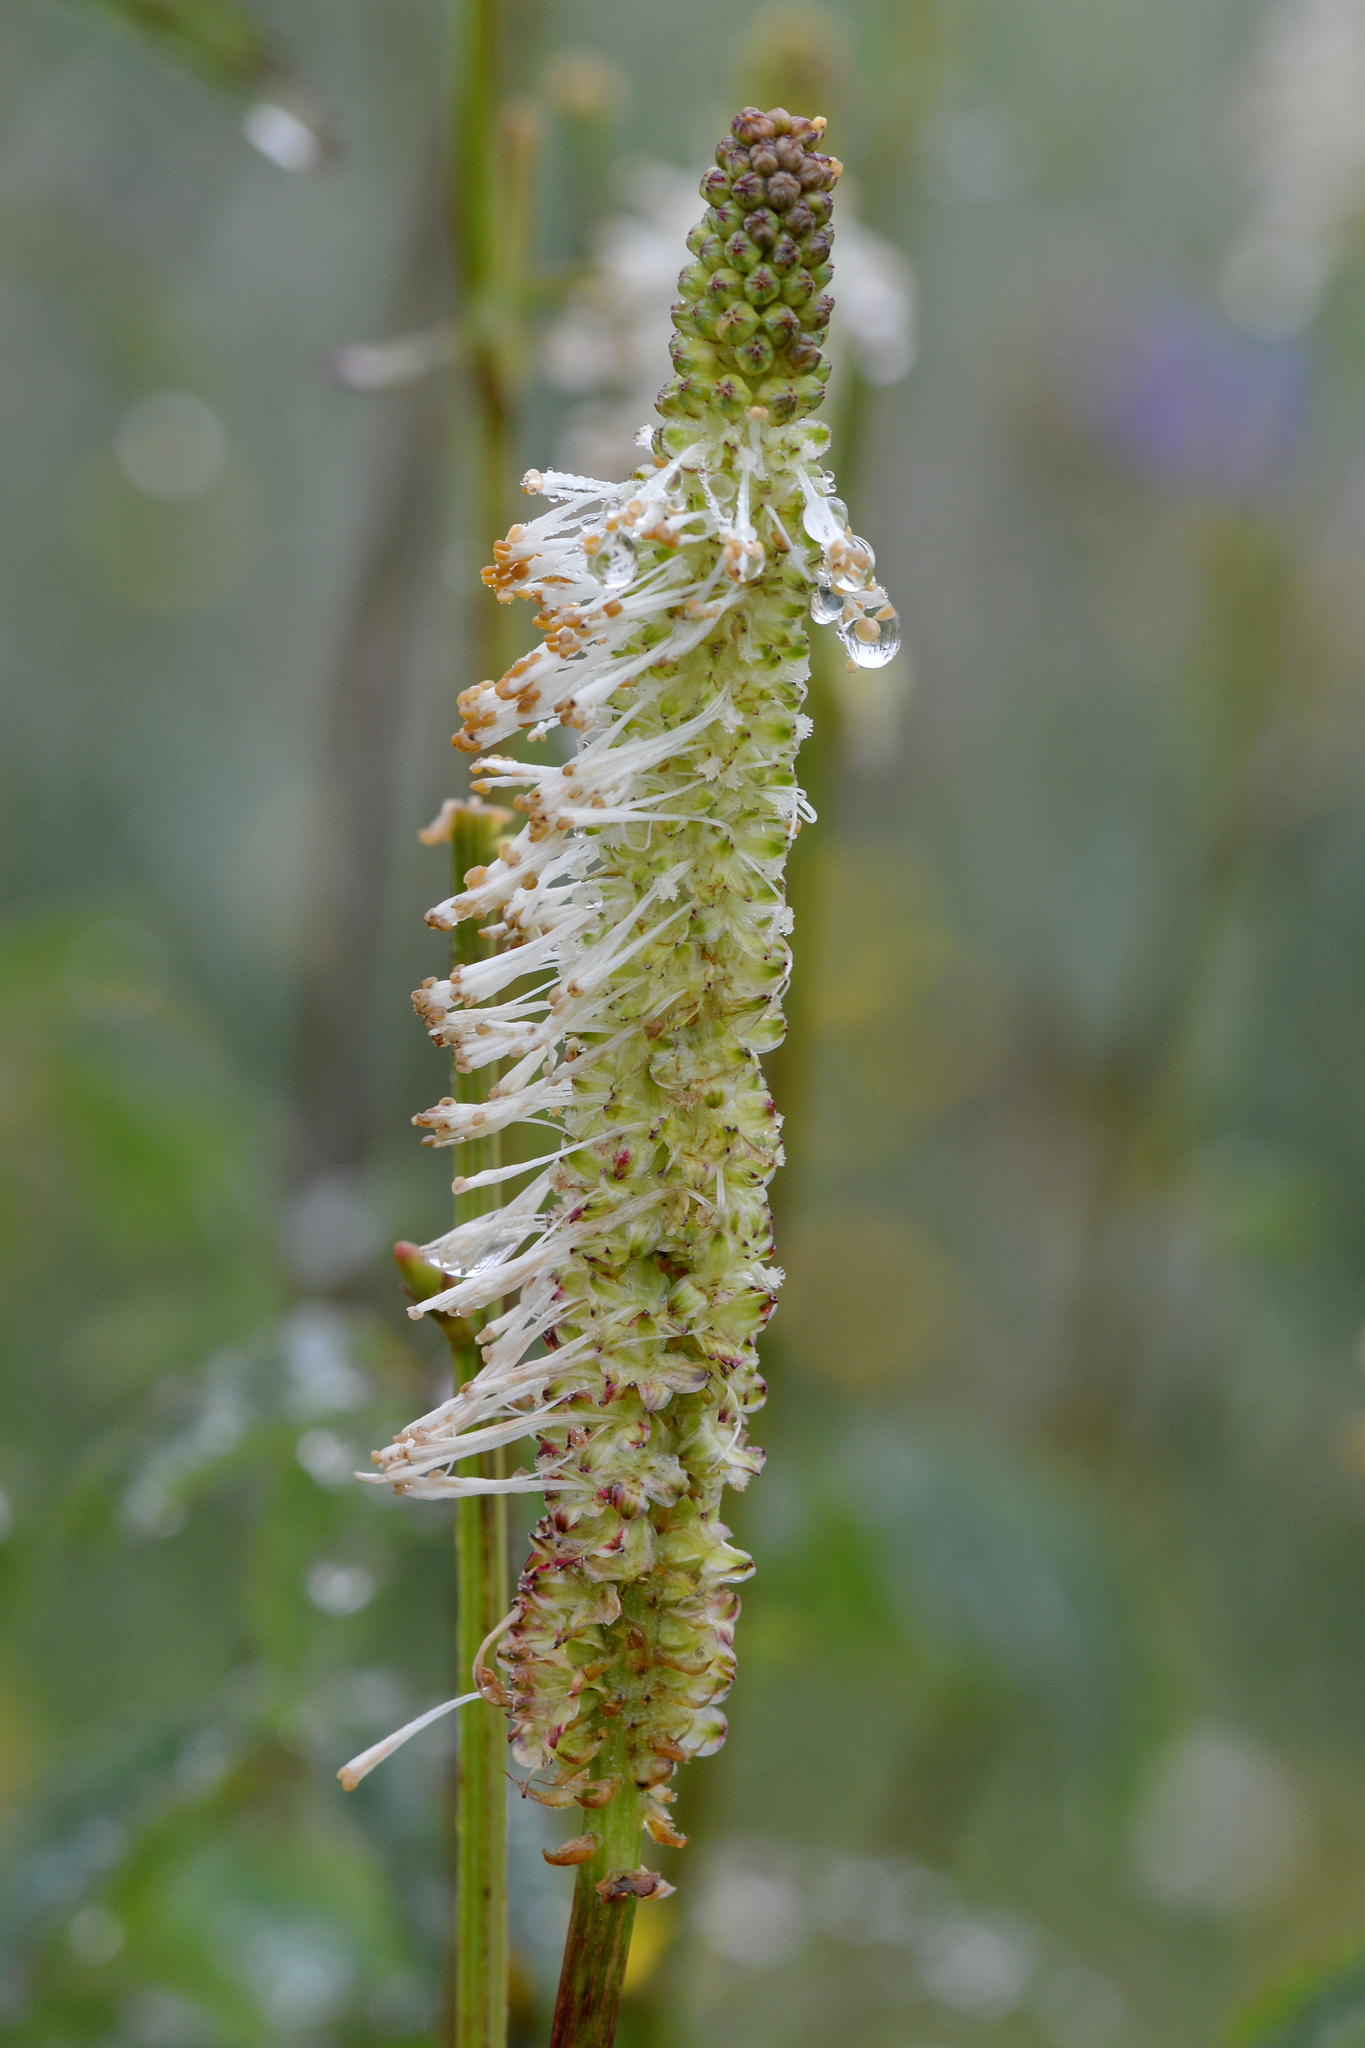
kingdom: Plantae
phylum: Tracheophyta
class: Magnoliopsida
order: Rosales
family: Rosaceae
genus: Sanguisorba
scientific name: Sanguisorba canadensis
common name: White burnet
